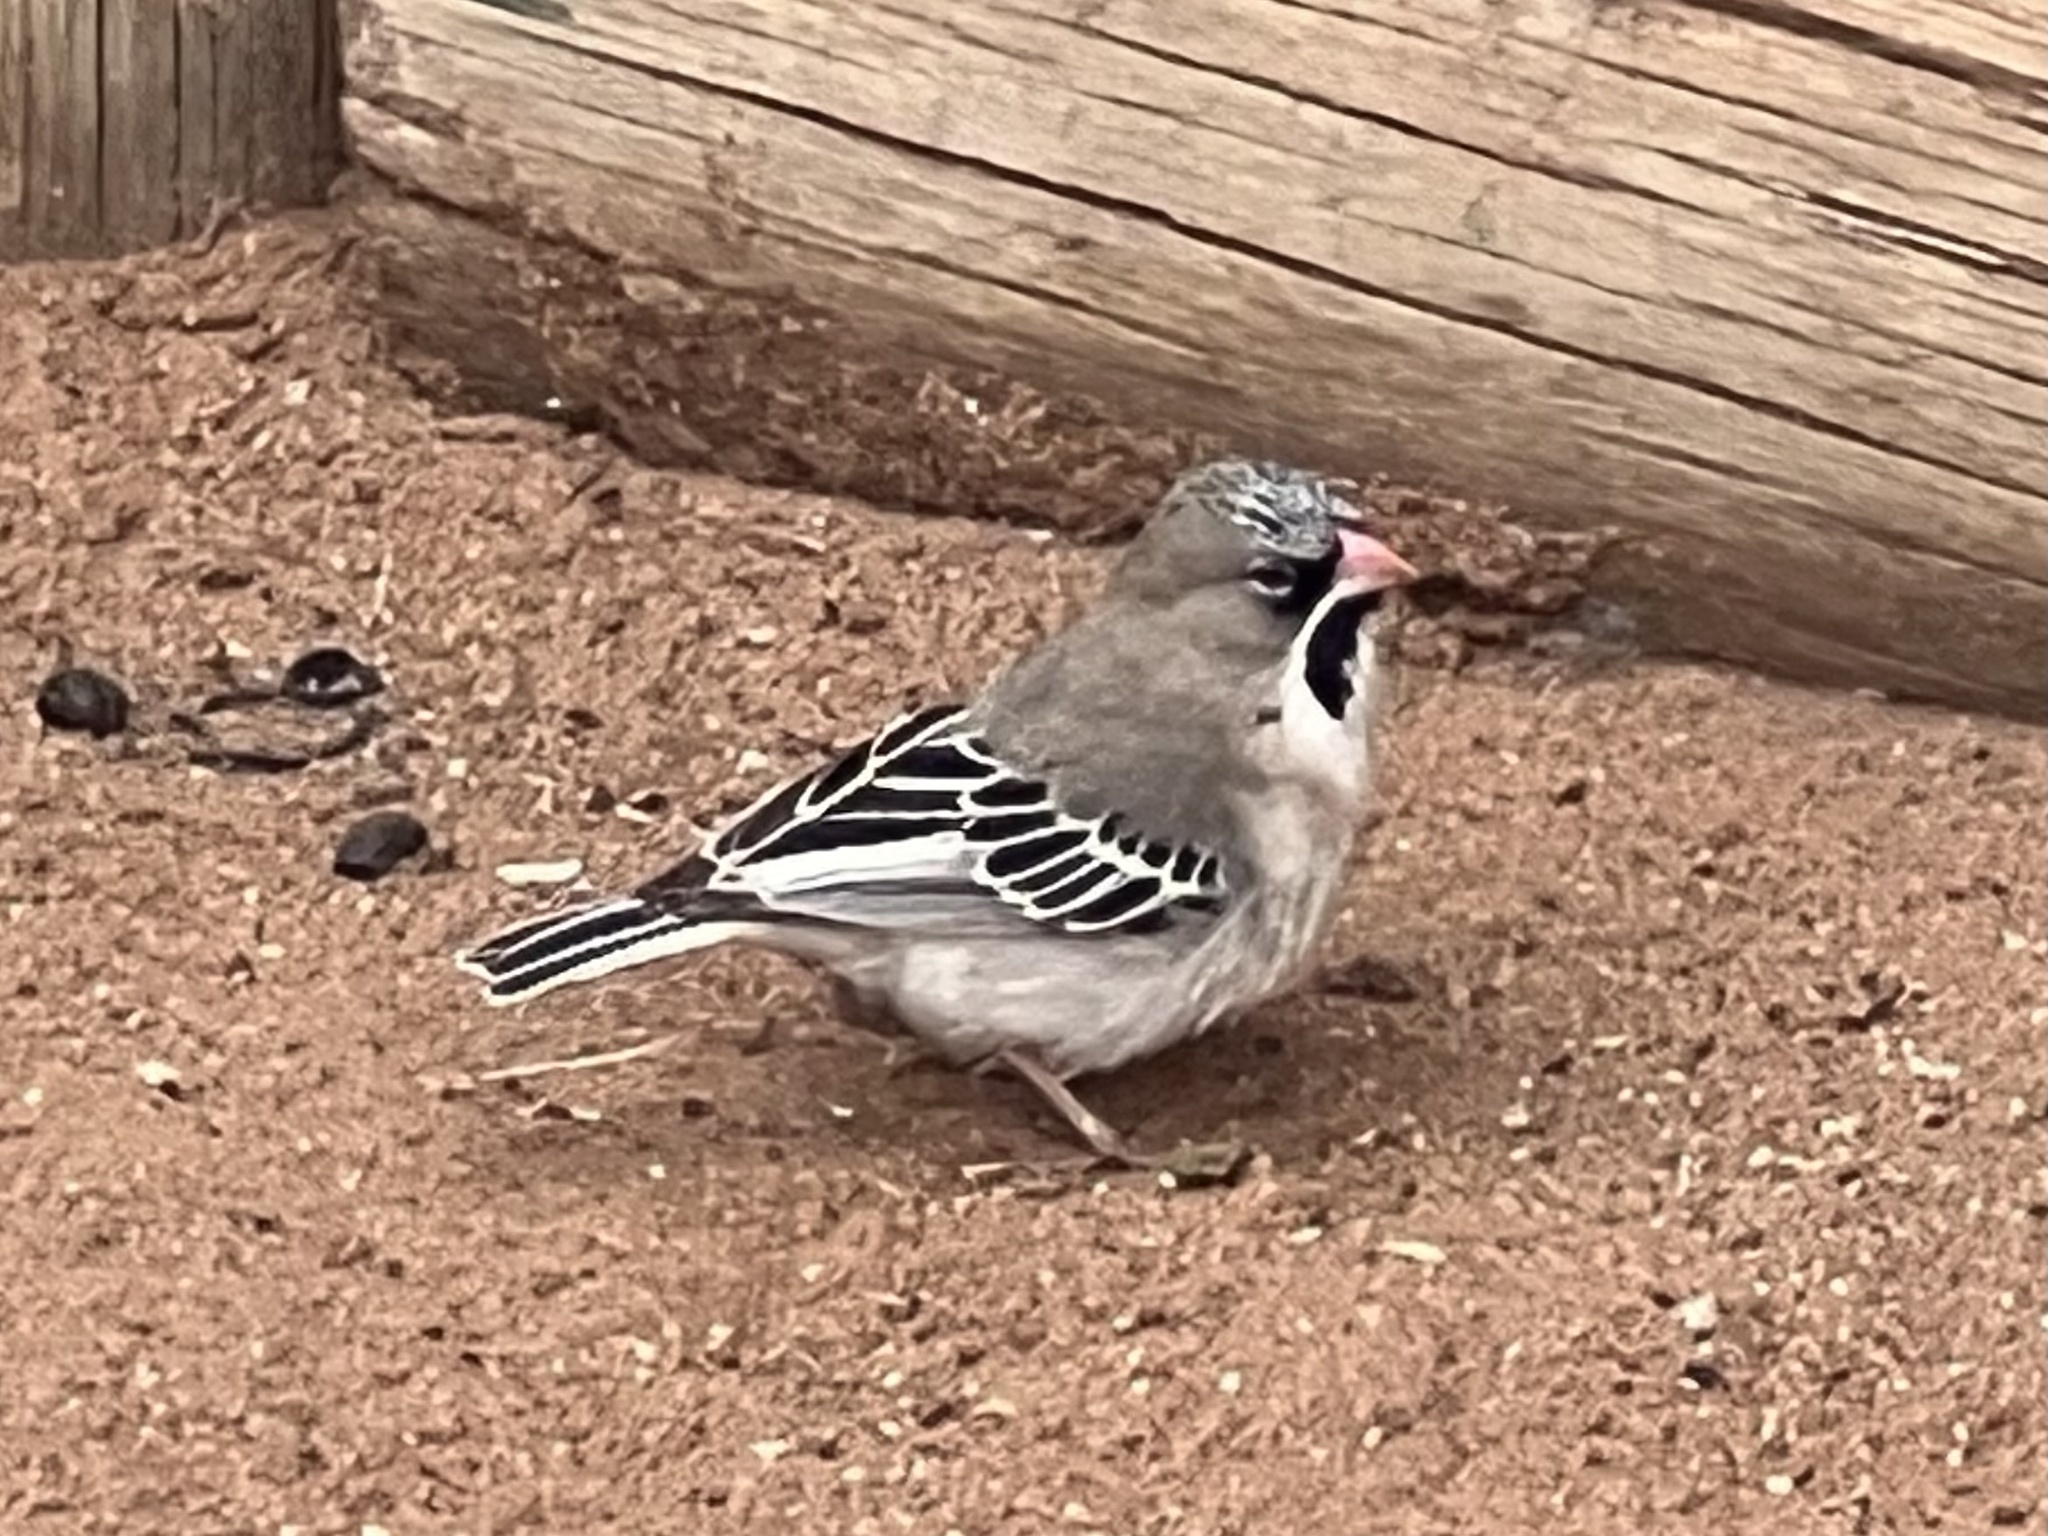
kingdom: Animalia
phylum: Chordata
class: Aves
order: Passeriformes
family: Ploceidae
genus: Sporopipes
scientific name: Sporopipes squamifrons
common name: Scaly-feathered weaver
